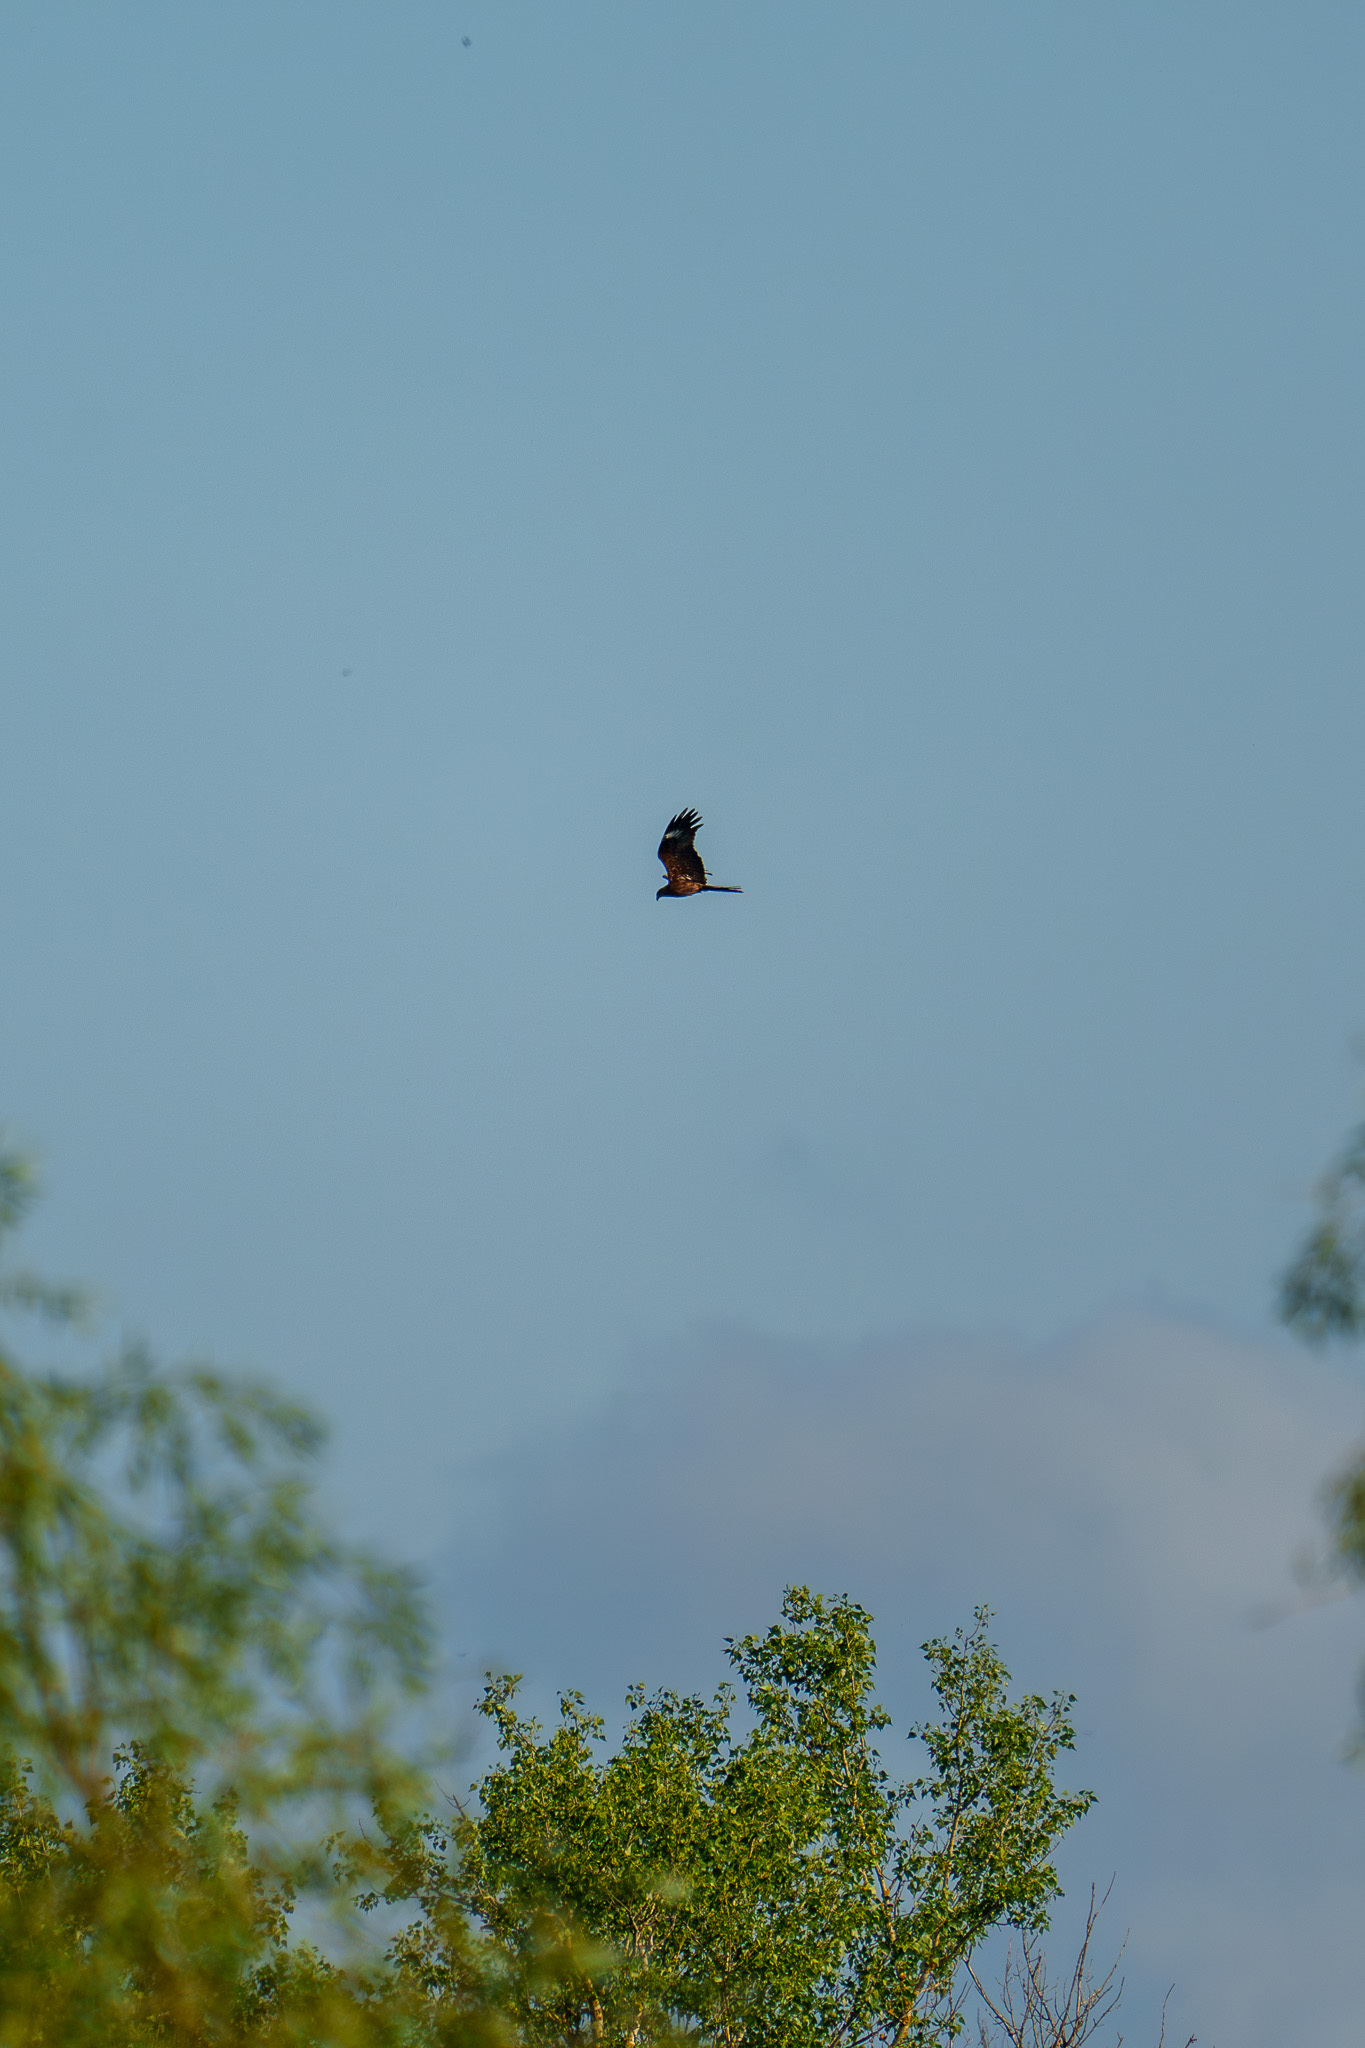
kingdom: Animalia
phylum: Chordata
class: Aves
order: Accipitriformes
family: Accipitridae
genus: Milvus
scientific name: Milvus migrans
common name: Black kite
